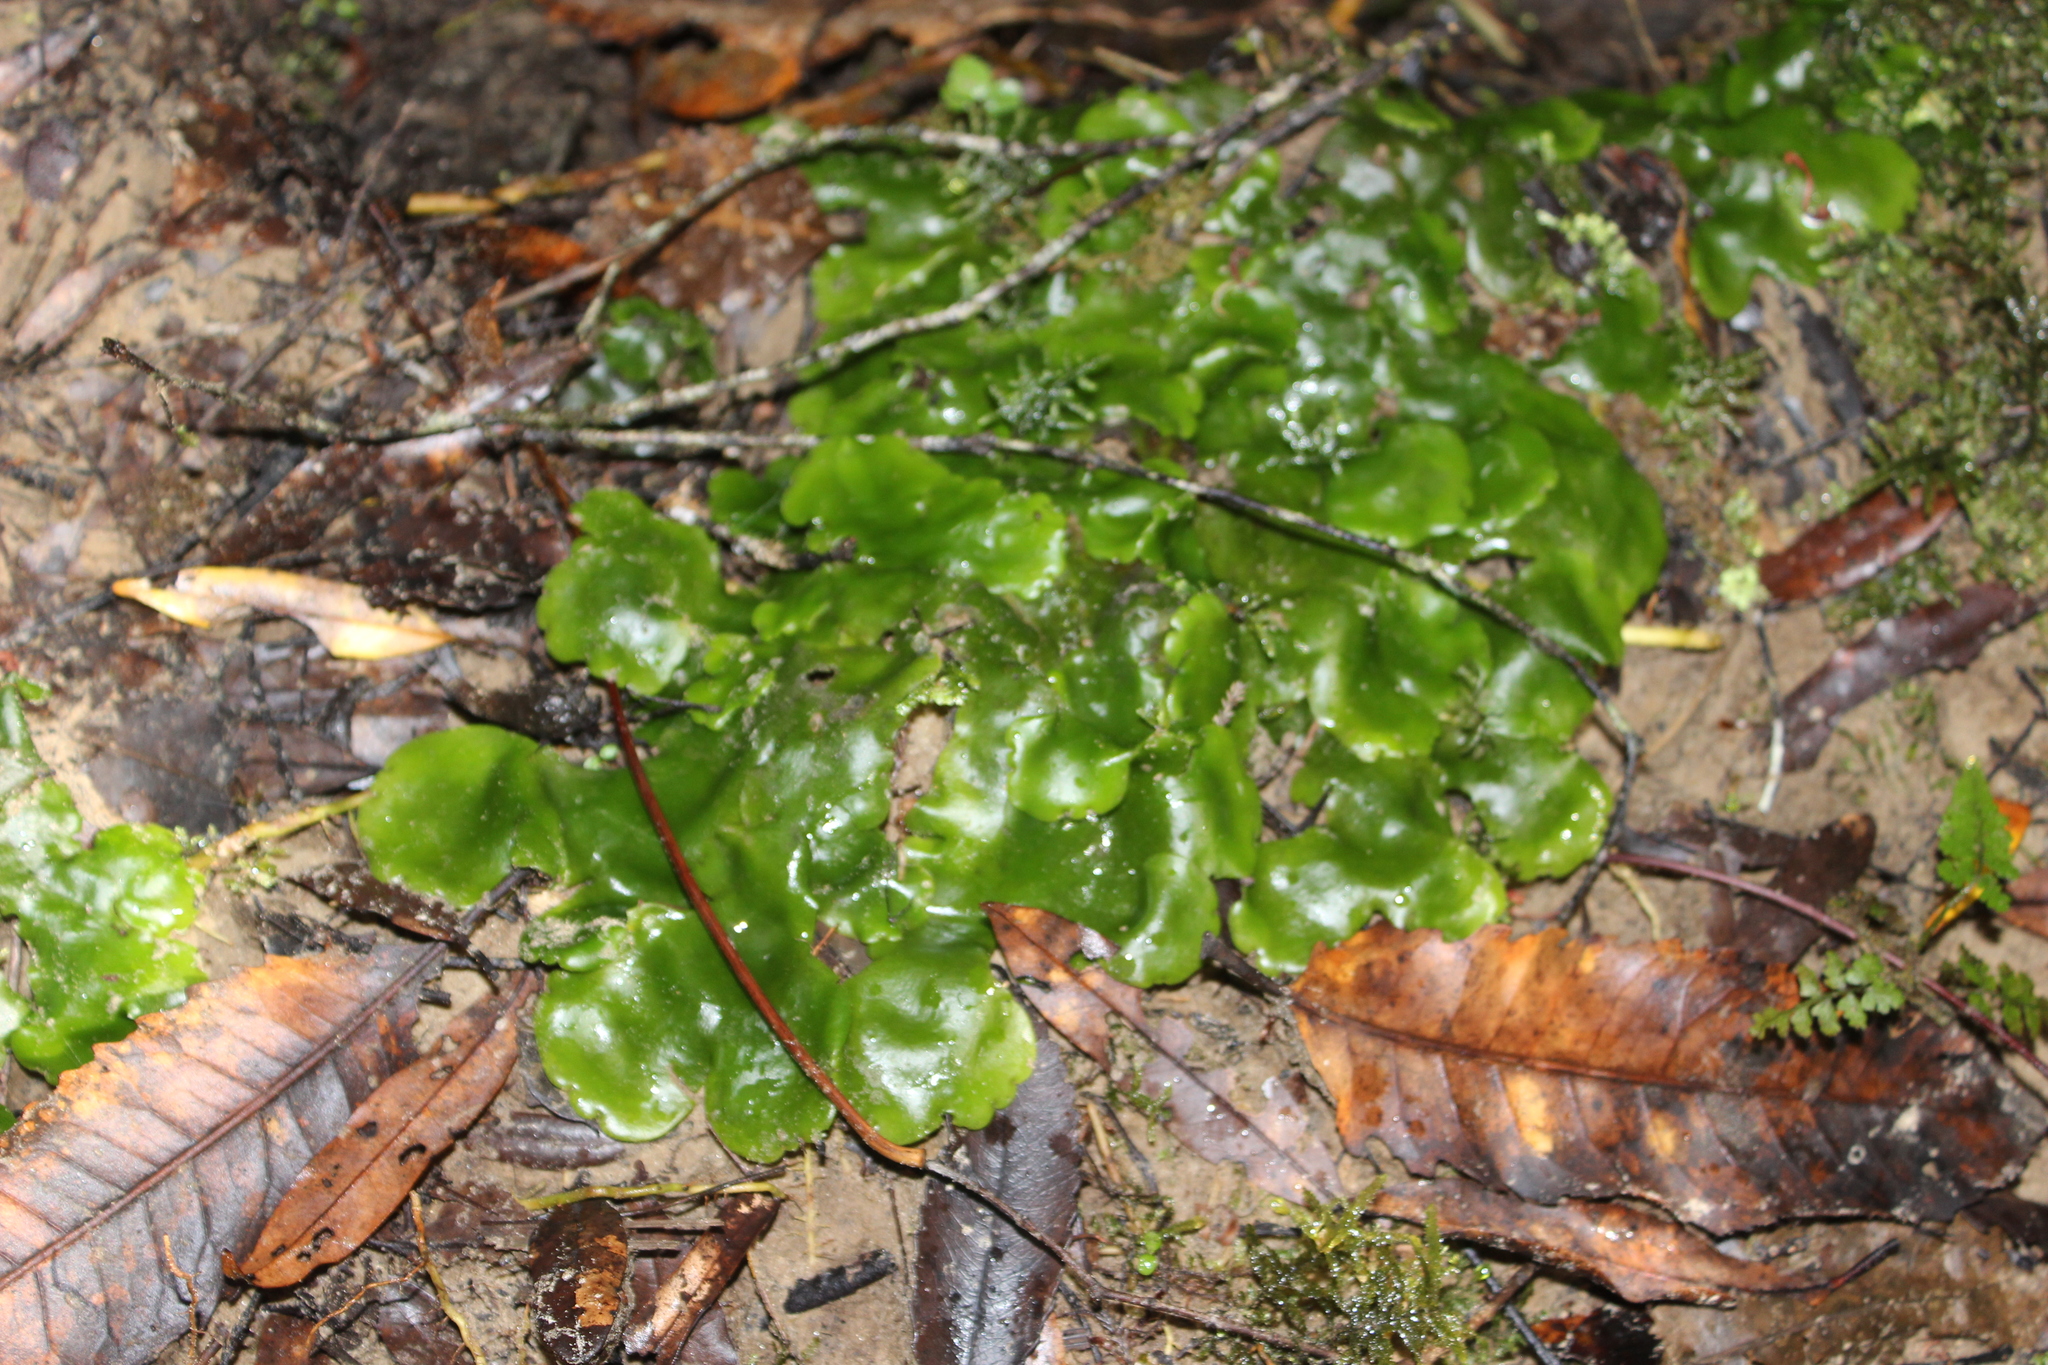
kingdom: Plantae
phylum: Marchantiophyta
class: Marchantiopsida
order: Marchantiales
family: Monocleaceae
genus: Monoclea
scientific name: Monoclea forsteri
